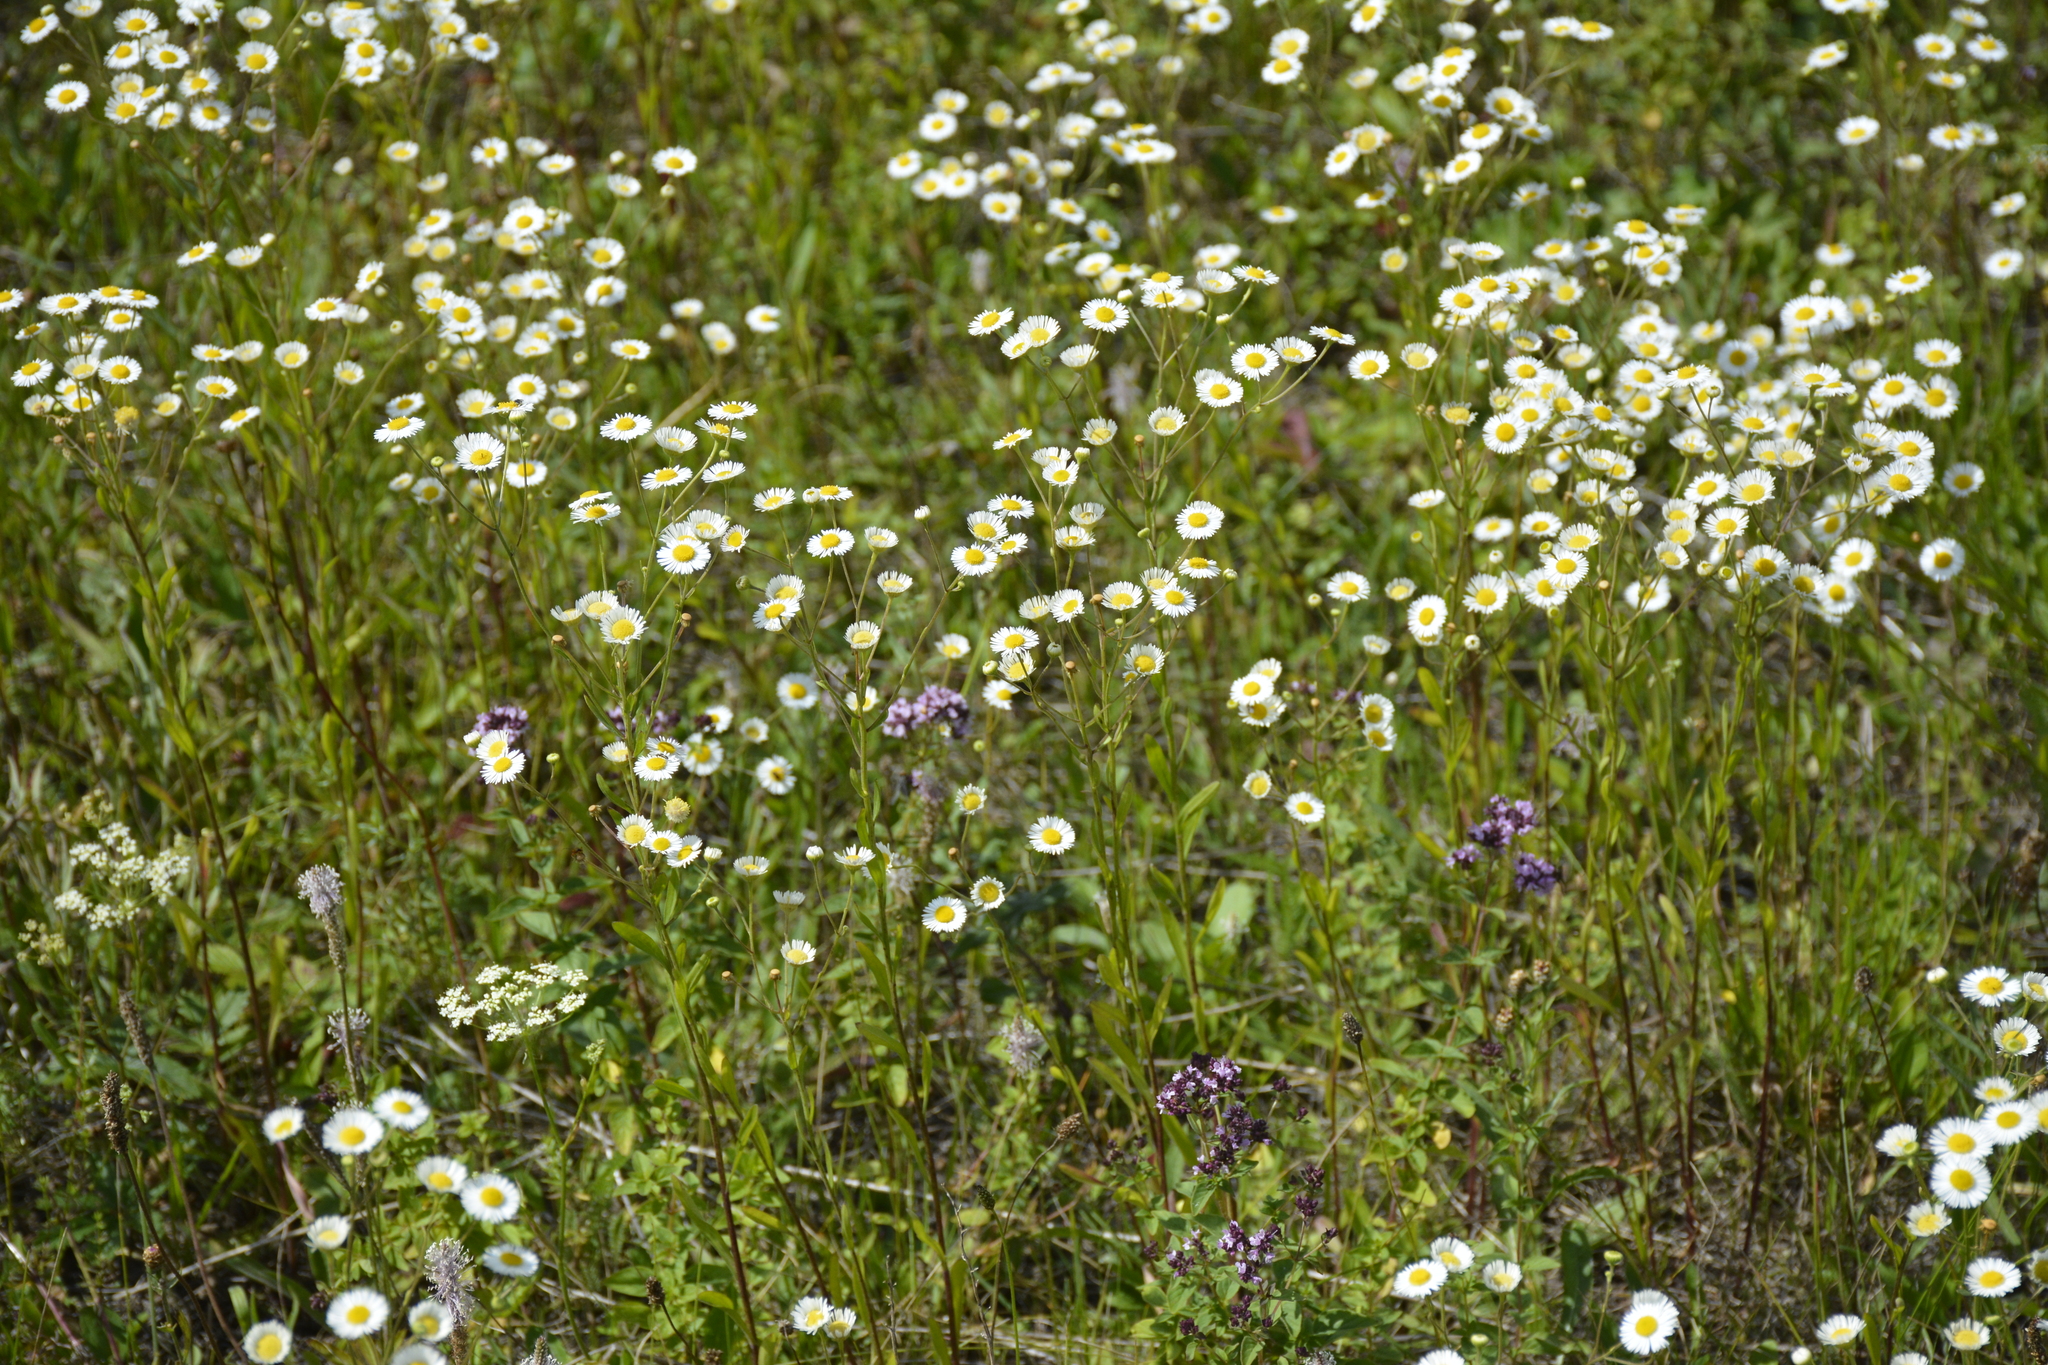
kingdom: Plantae
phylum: Tracheophyta
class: Magnoliopsida
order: Asterales
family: Asteraceae
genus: Erigeron
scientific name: Erigeron strigosus
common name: Common eastern fleabane
